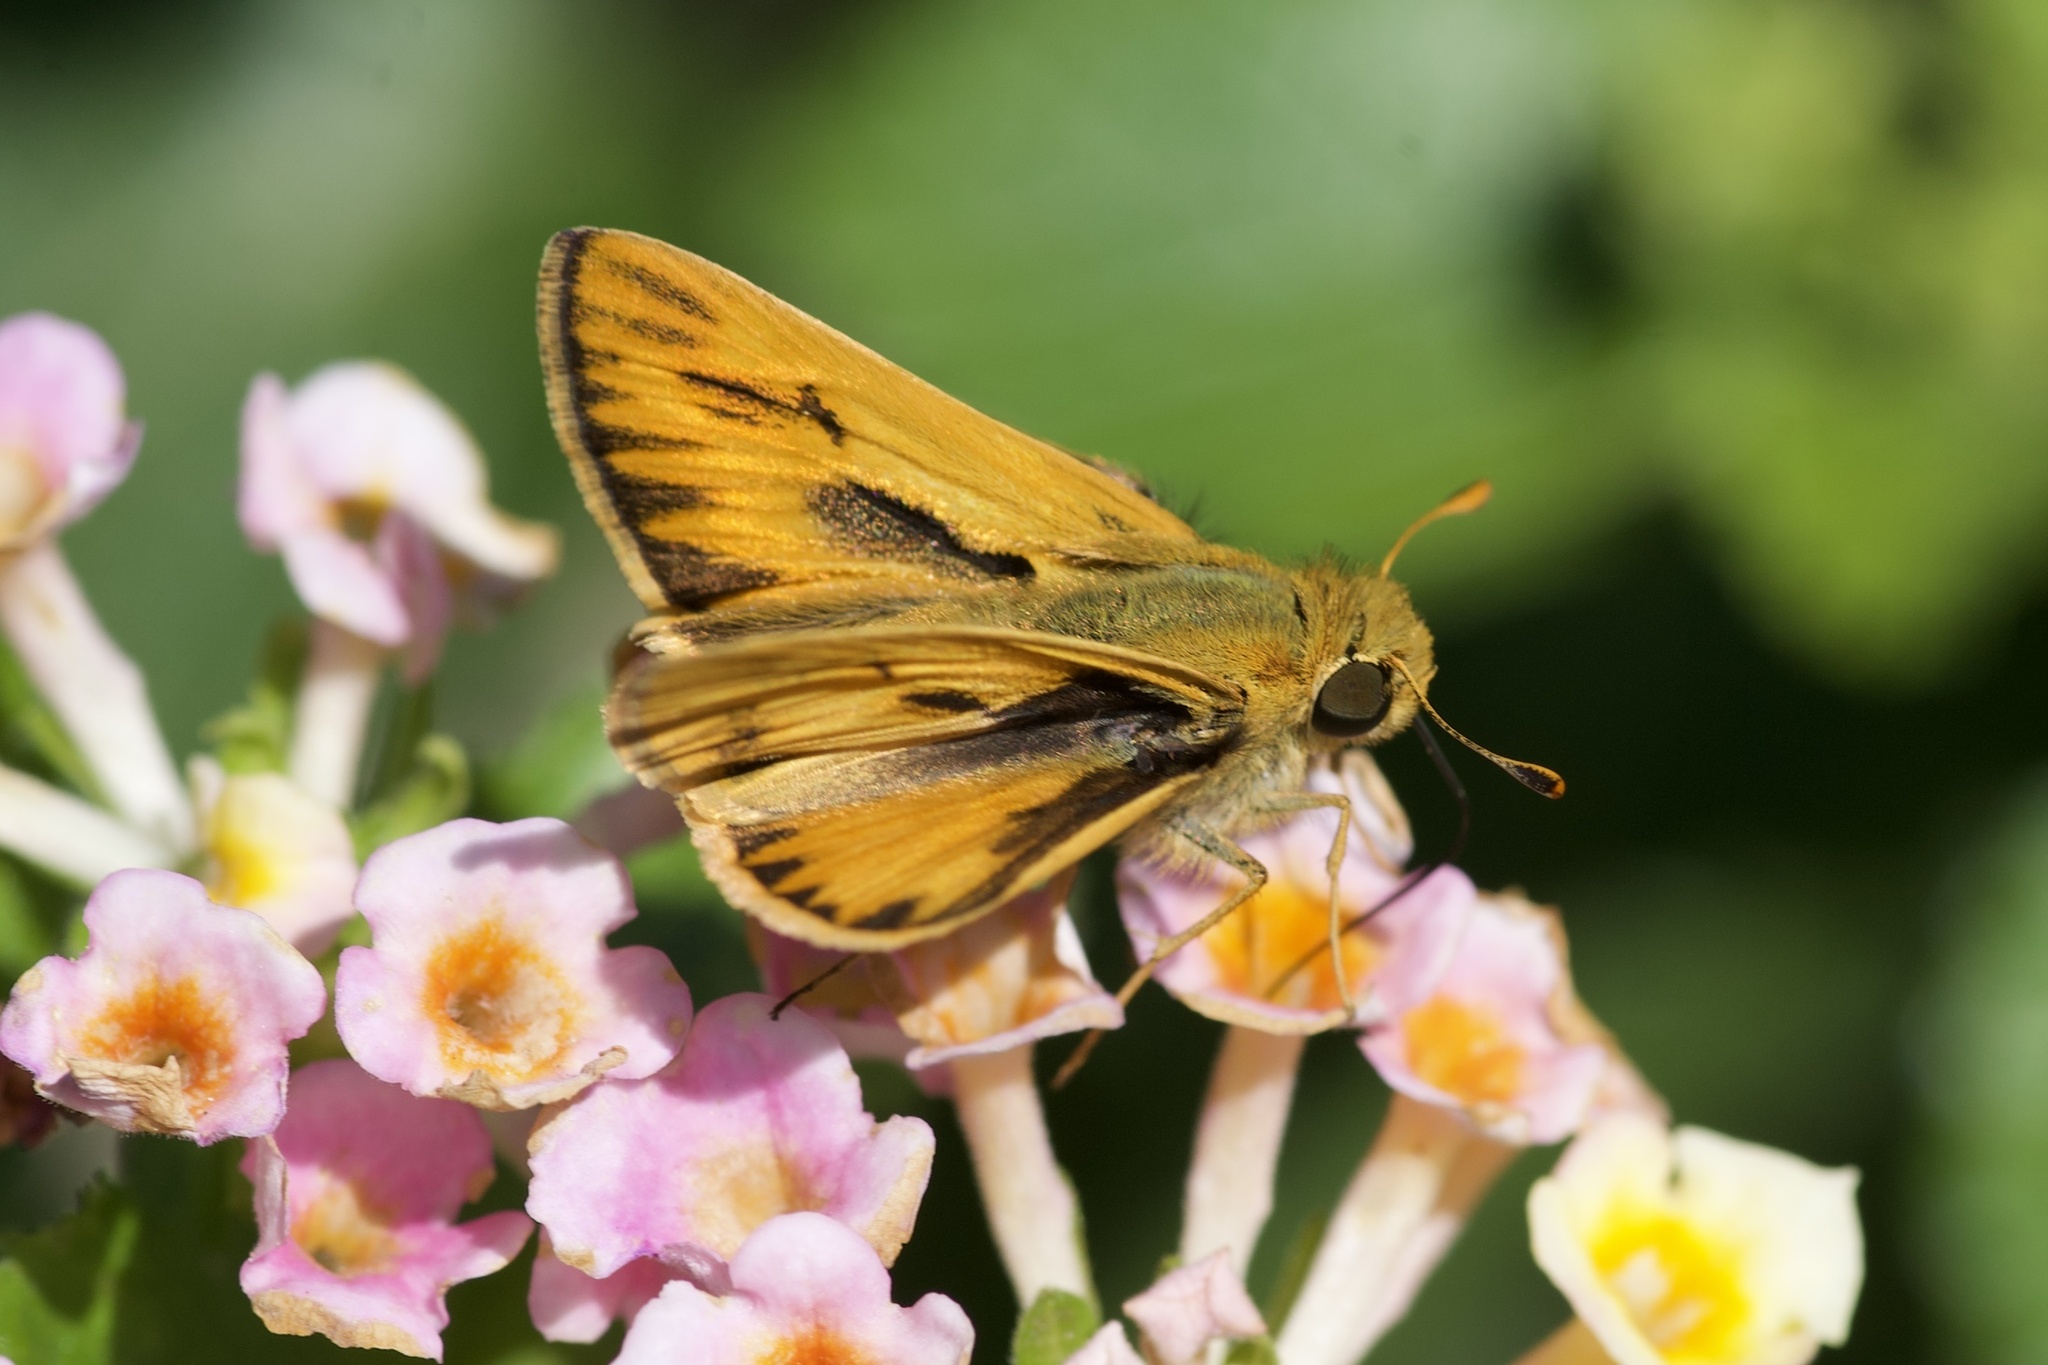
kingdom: Animalia
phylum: Arthropoda
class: Insecta
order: Lepidoptera
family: Hesperiidae
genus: Hylephila
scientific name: Hylephila phyleus
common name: Fiery skipper
